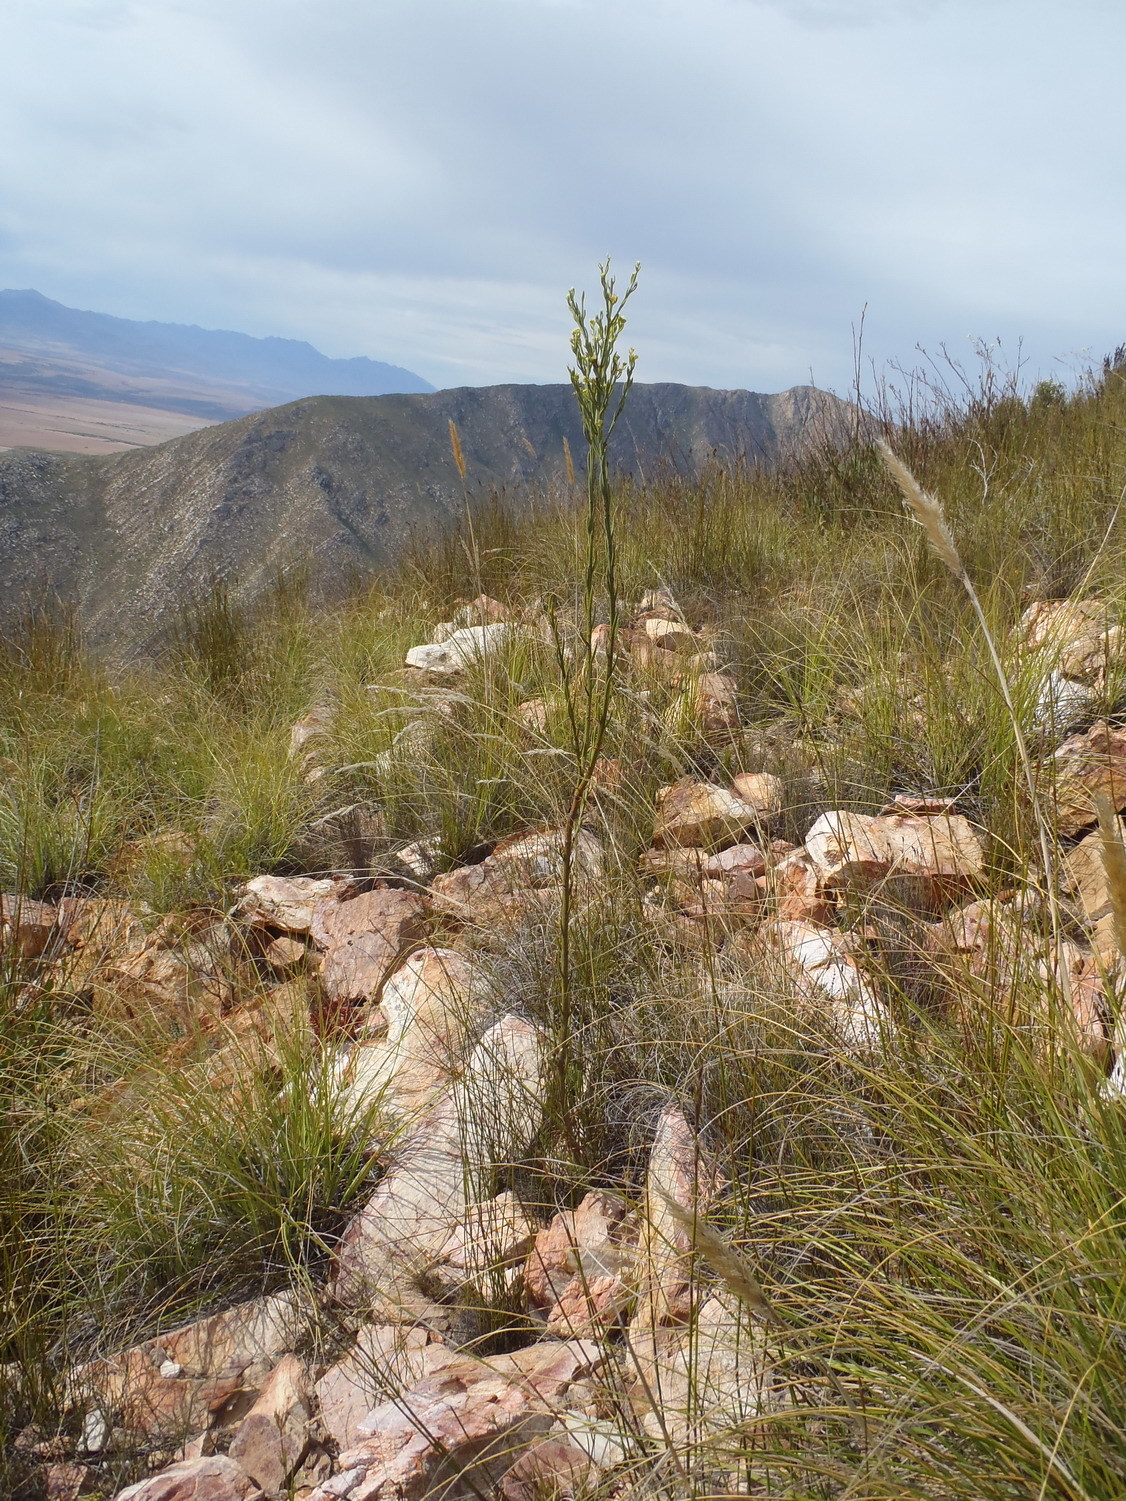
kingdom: Plantae
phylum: Tracheophyta
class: Magnoliopsida
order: Santalales
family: Thesiaceae
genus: Thesium
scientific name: Thesium strictum
